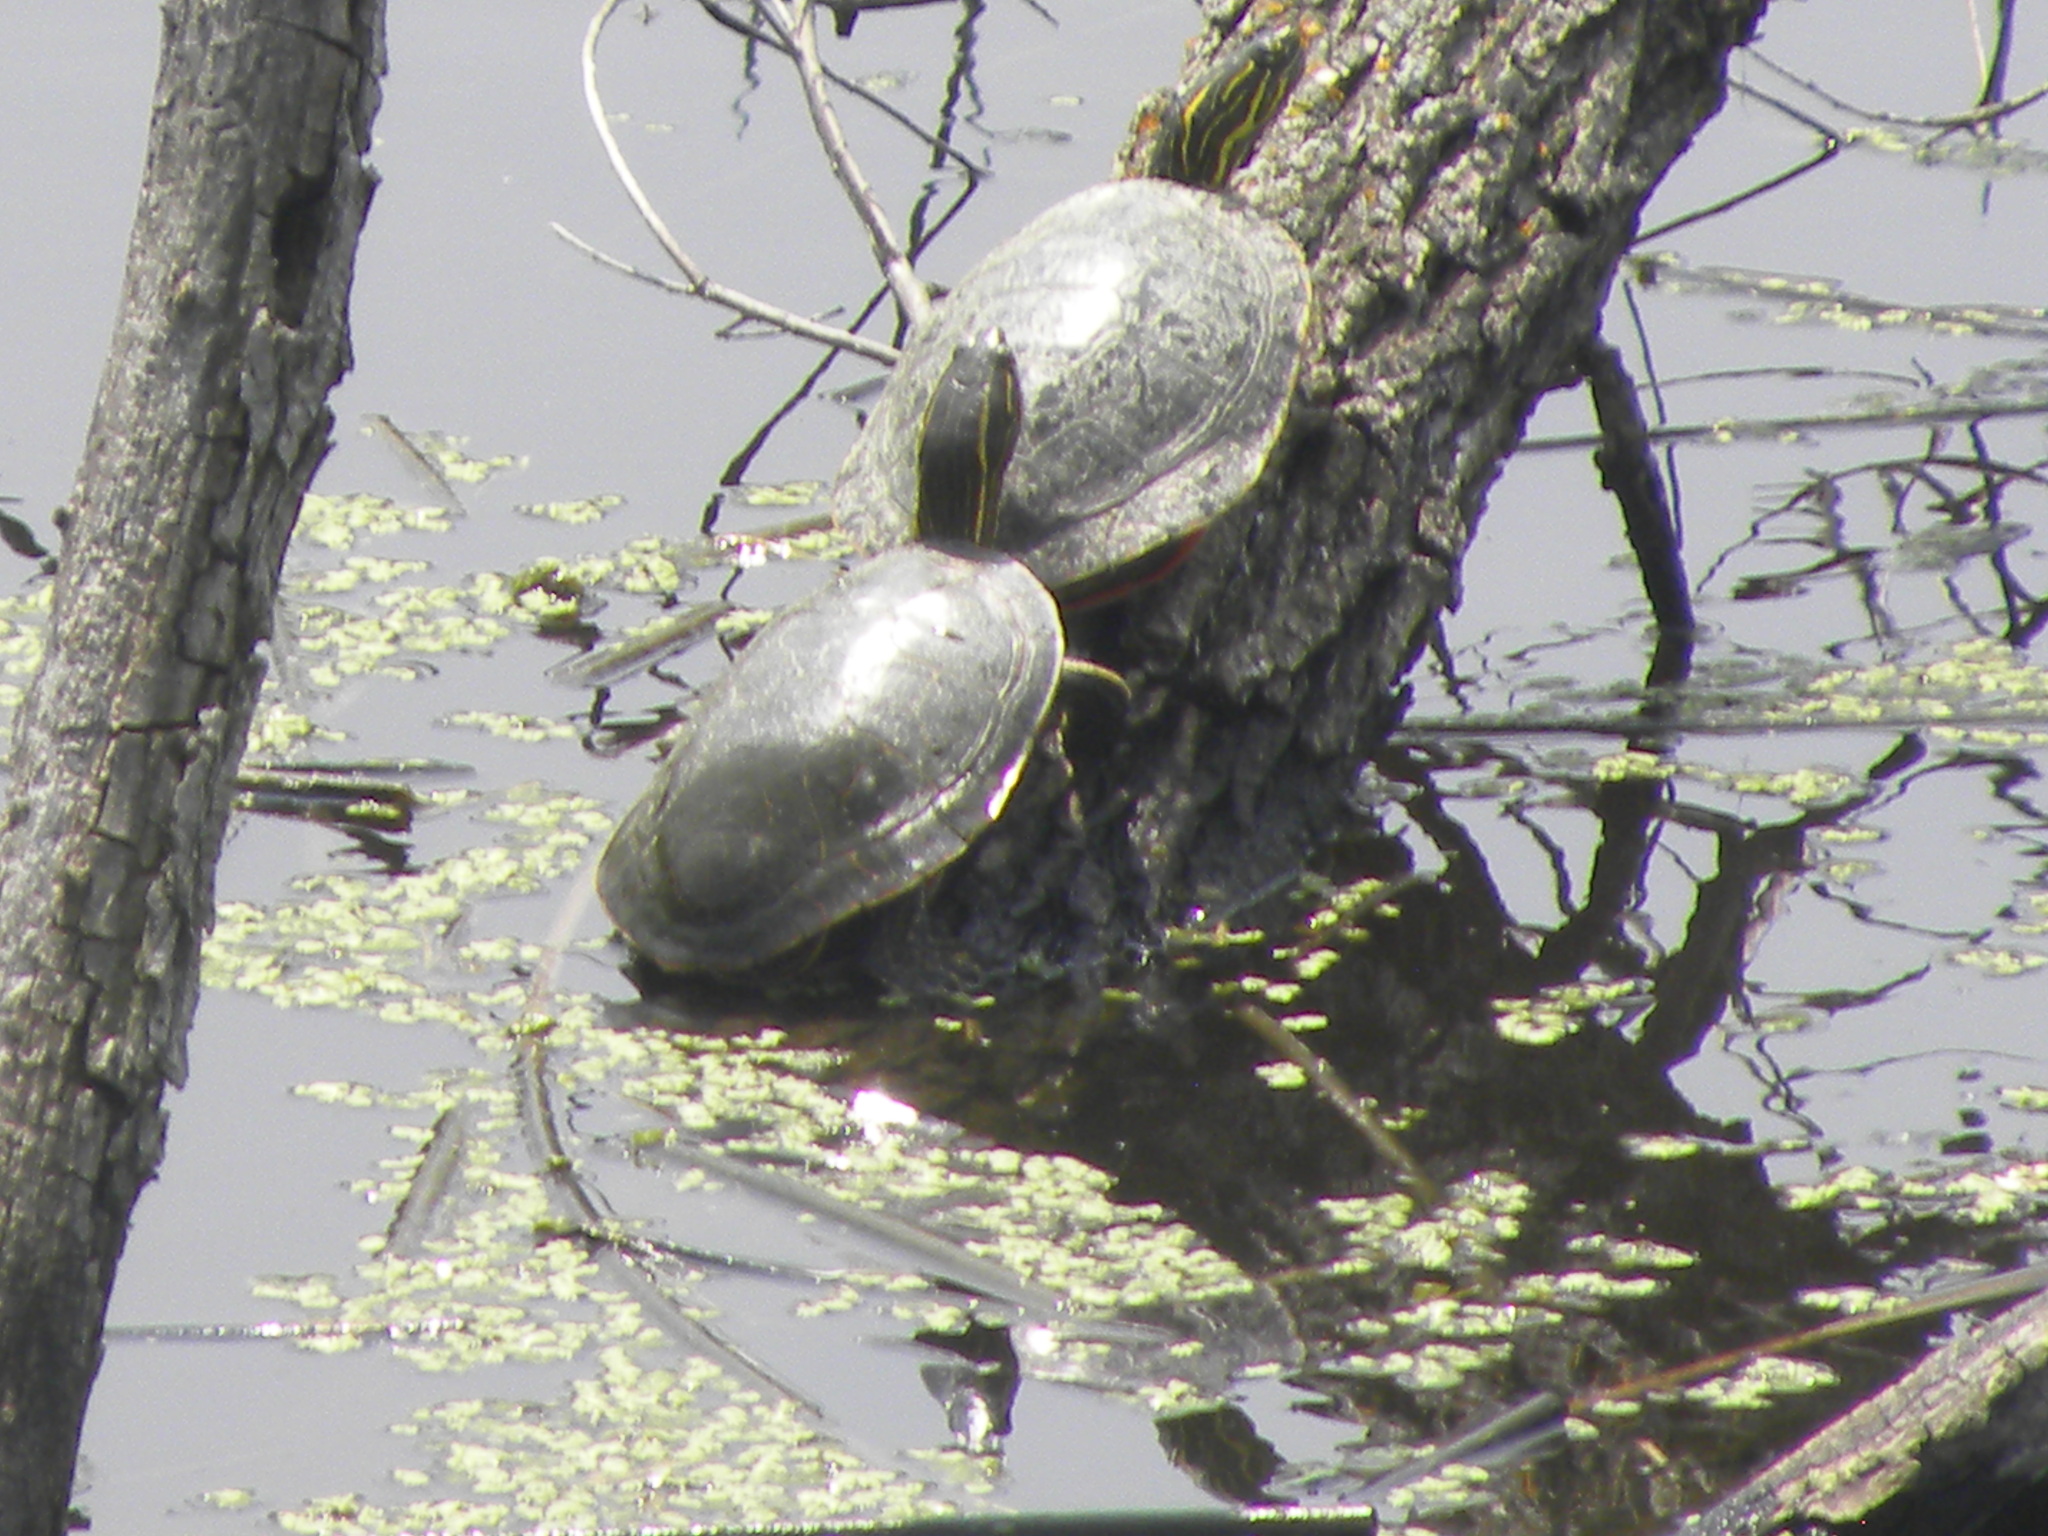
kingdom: Animalia
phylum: Chordata
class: Testudines
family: Emydidae
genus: Chrysemys
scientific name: Chrysemys picta
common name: Painted turtle
